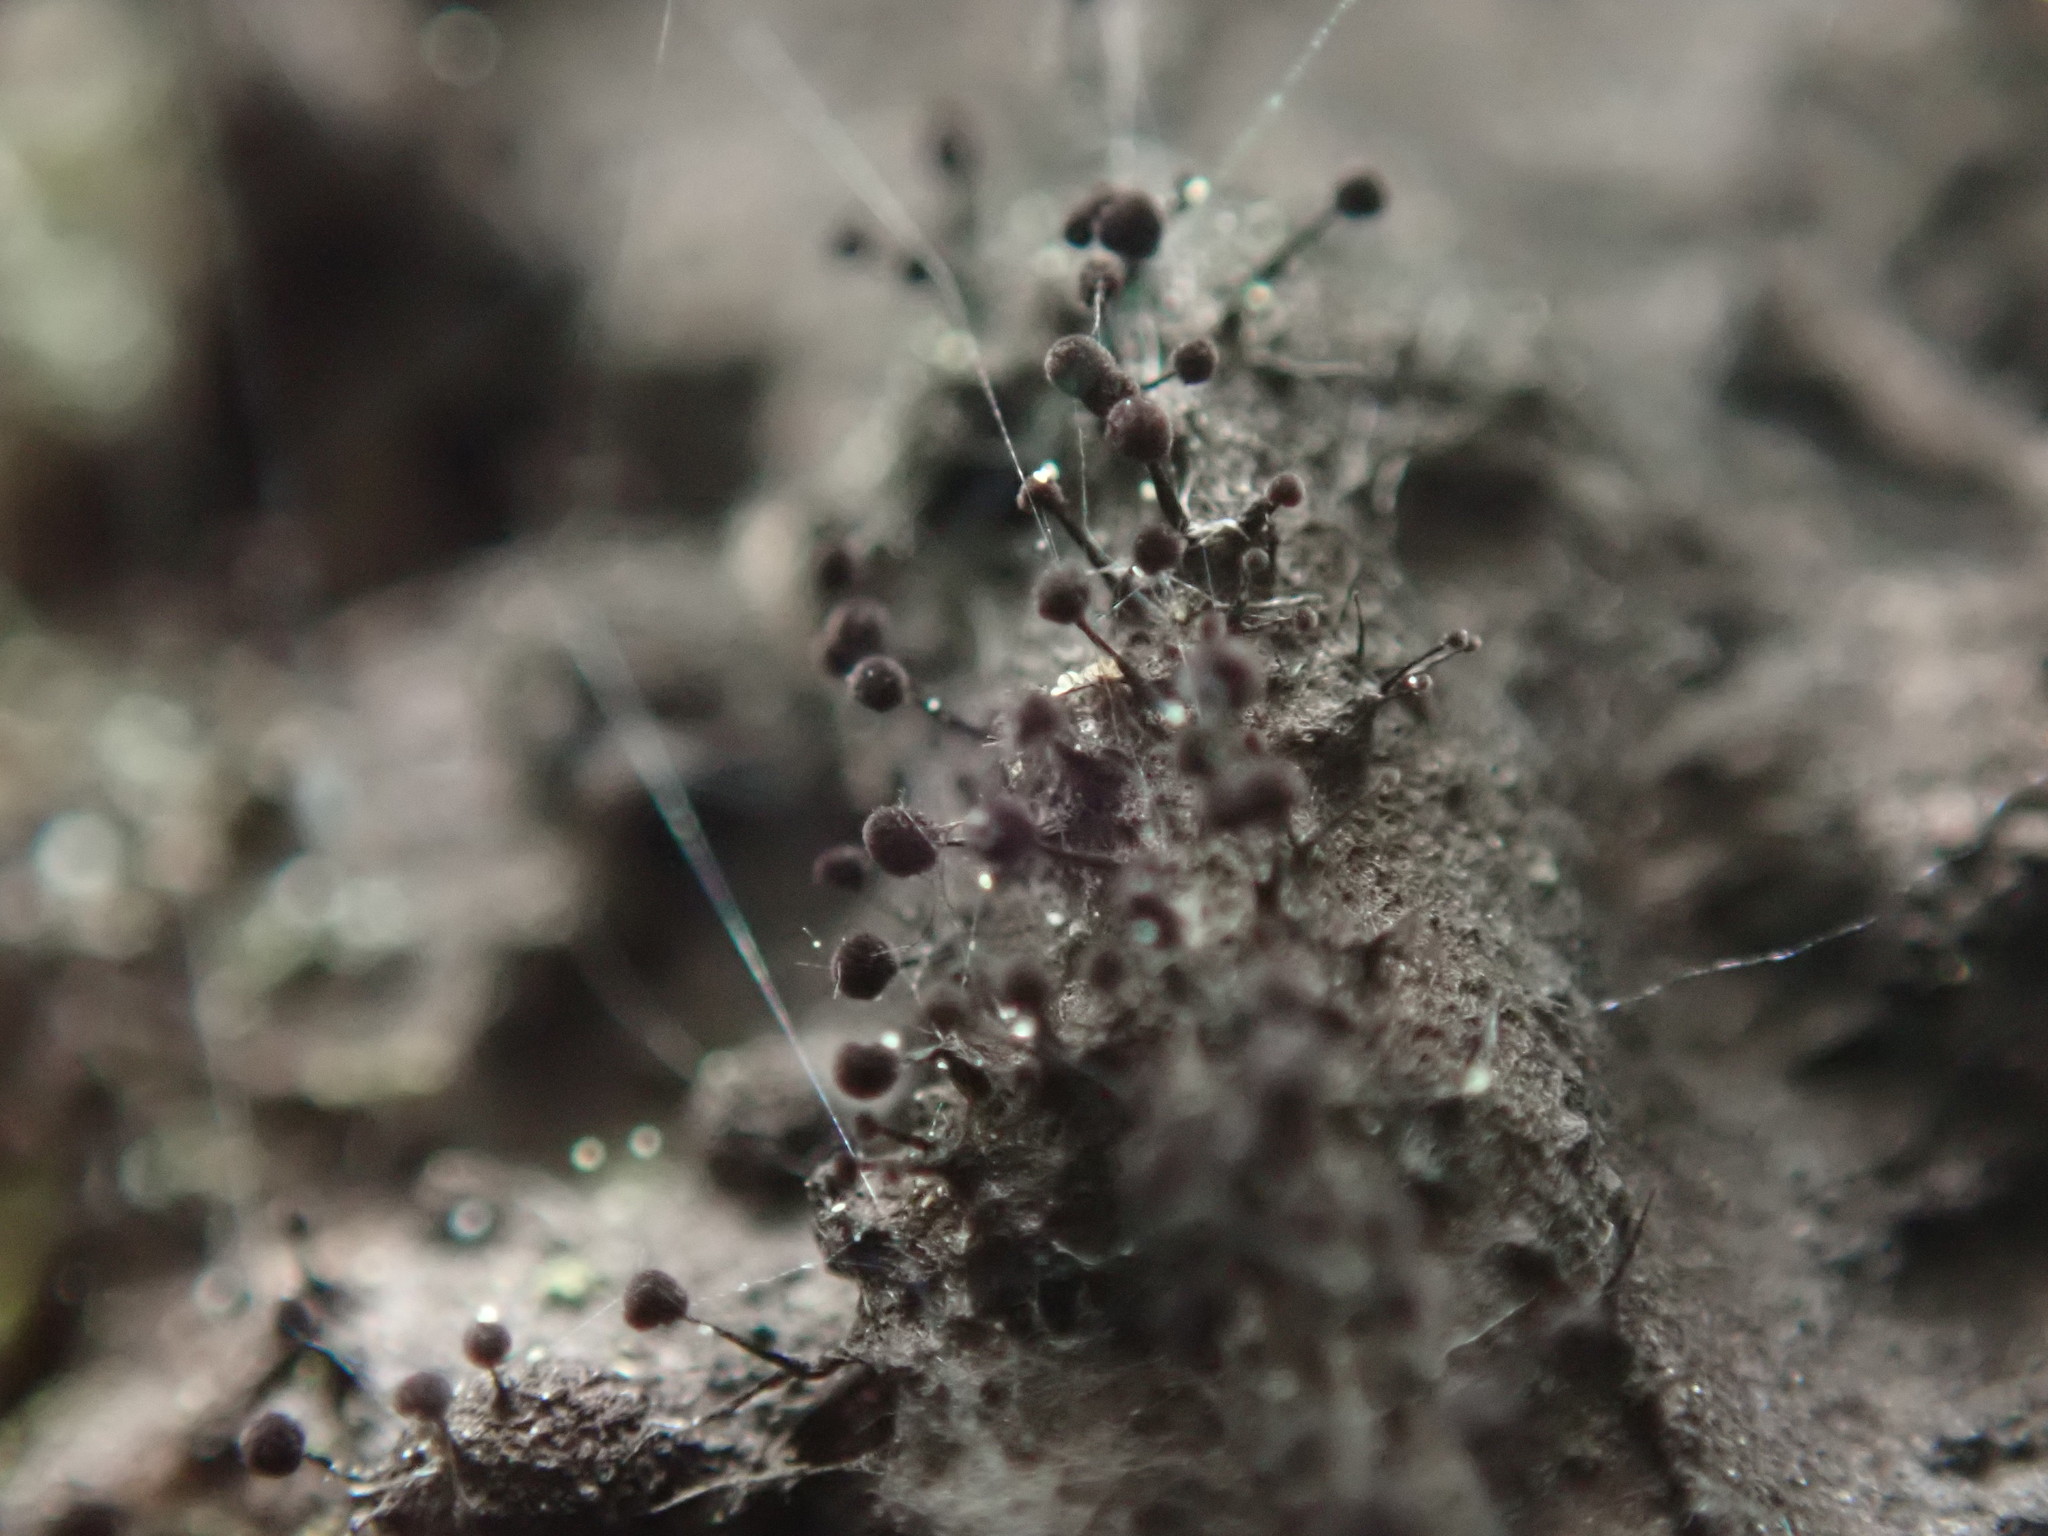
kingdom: Fungi
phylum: Ascomycota
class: Leotiomycetes
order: Helotiales
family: Amorphothecaceae
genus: Sorocybe
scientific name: Sorocybe resinae
